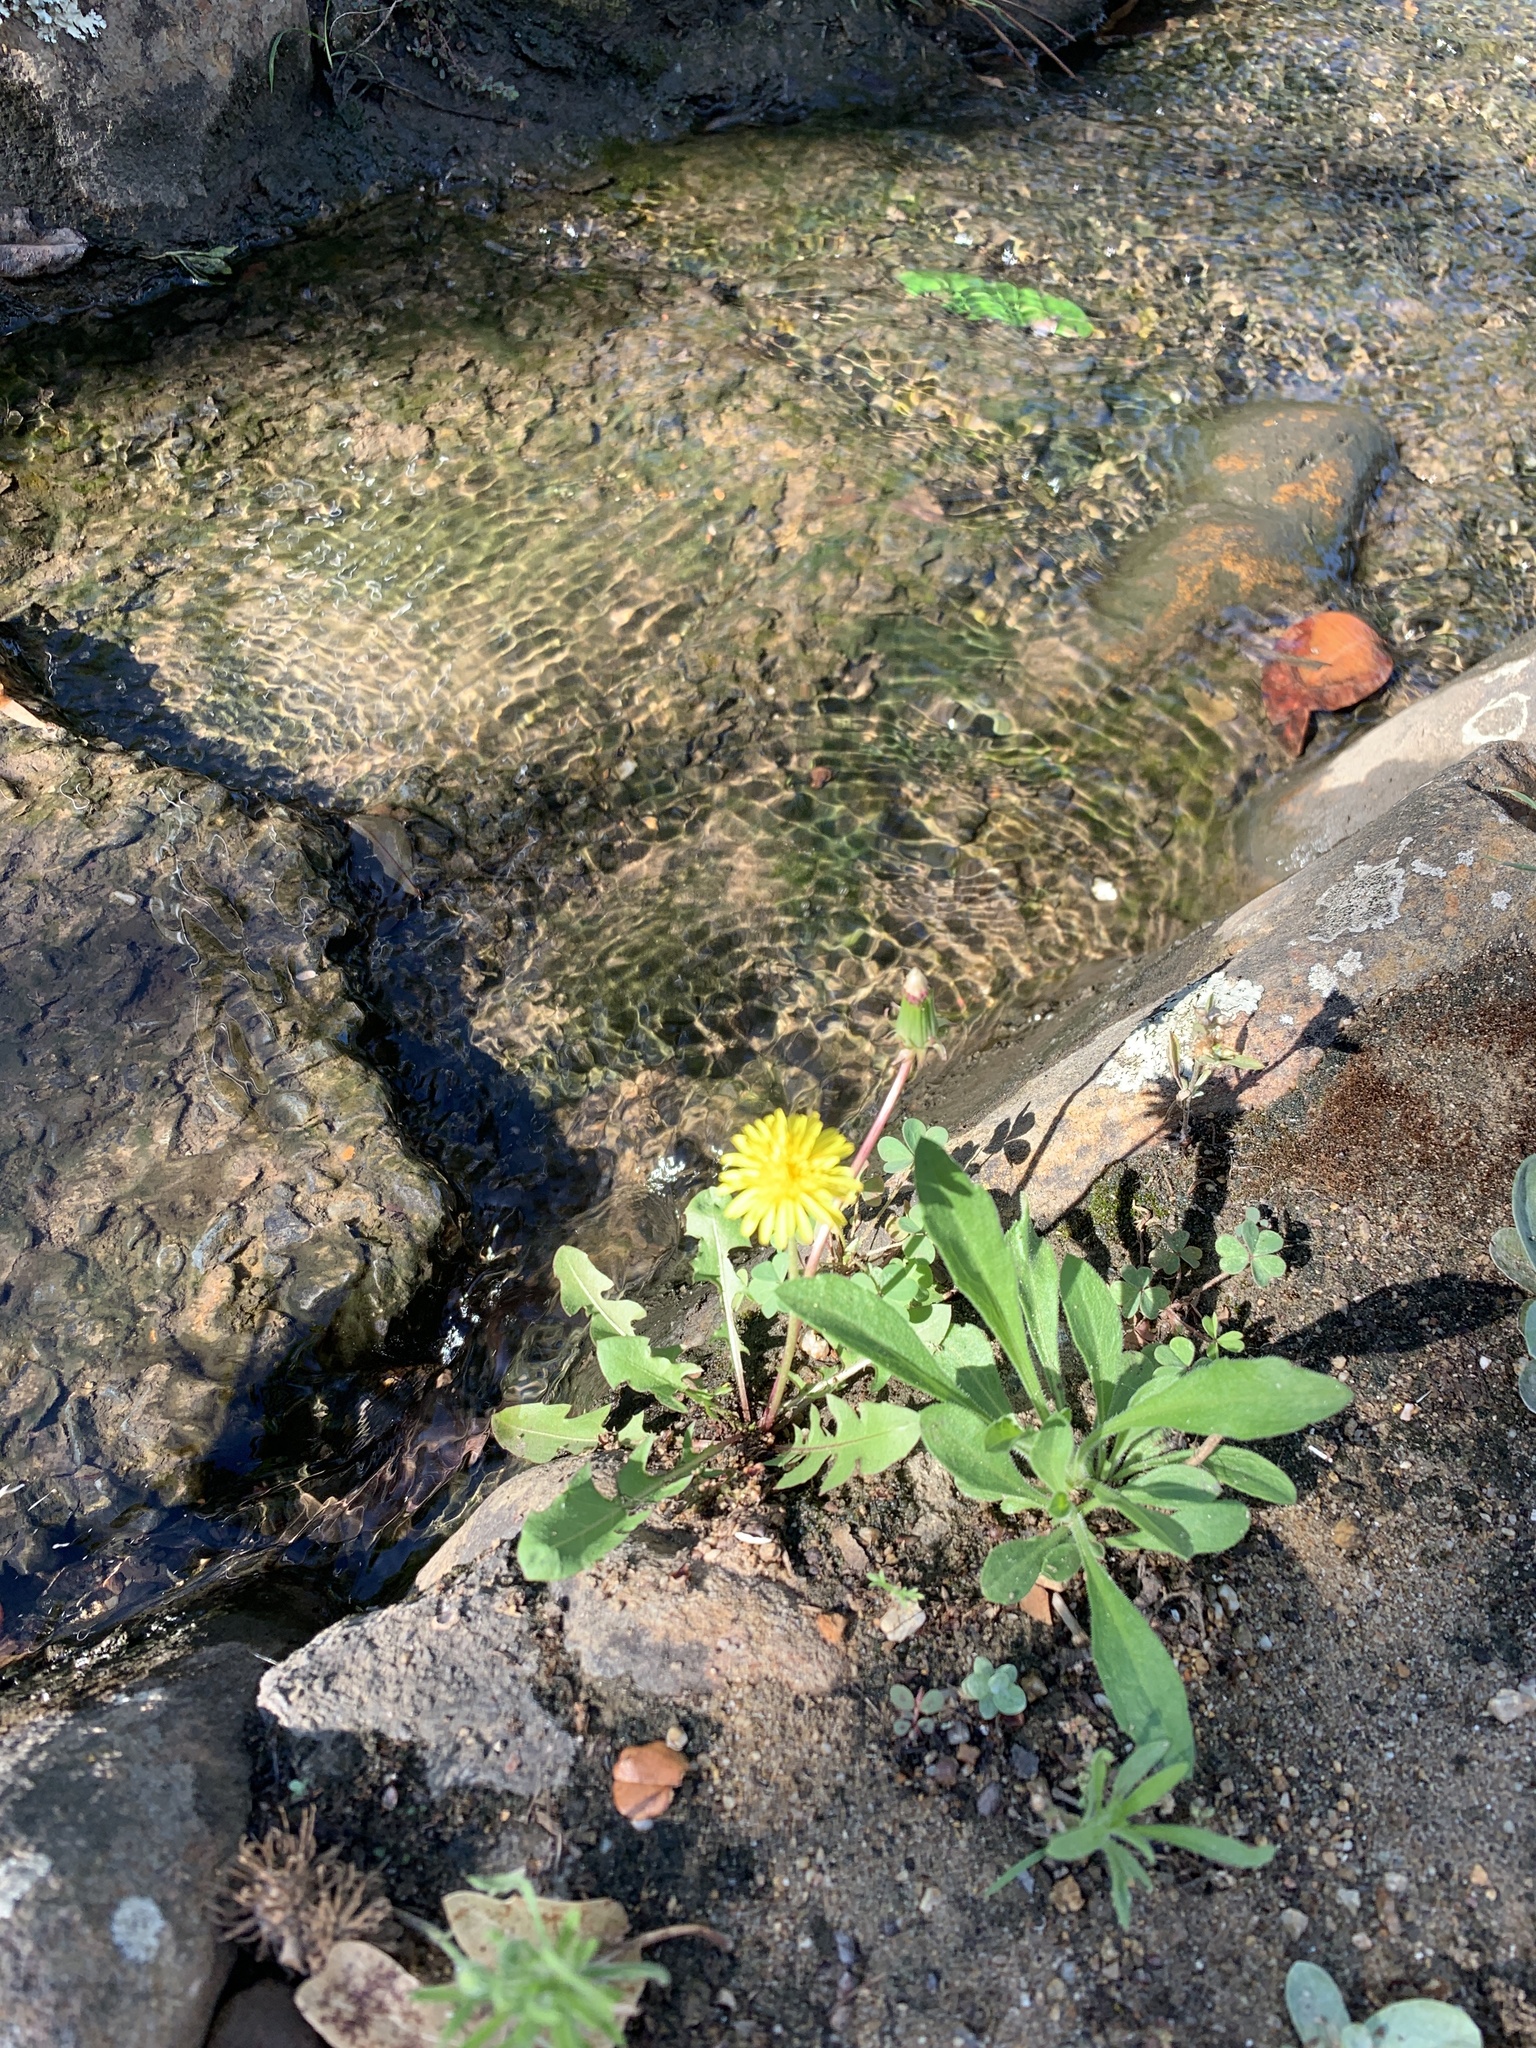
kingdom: Plantae
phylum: Tracheophyta
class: Magnoliopsida
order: Asterales
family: Asteraceae
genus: Taraxacum
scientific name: Taraxacum officinale
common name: Common dandelion
